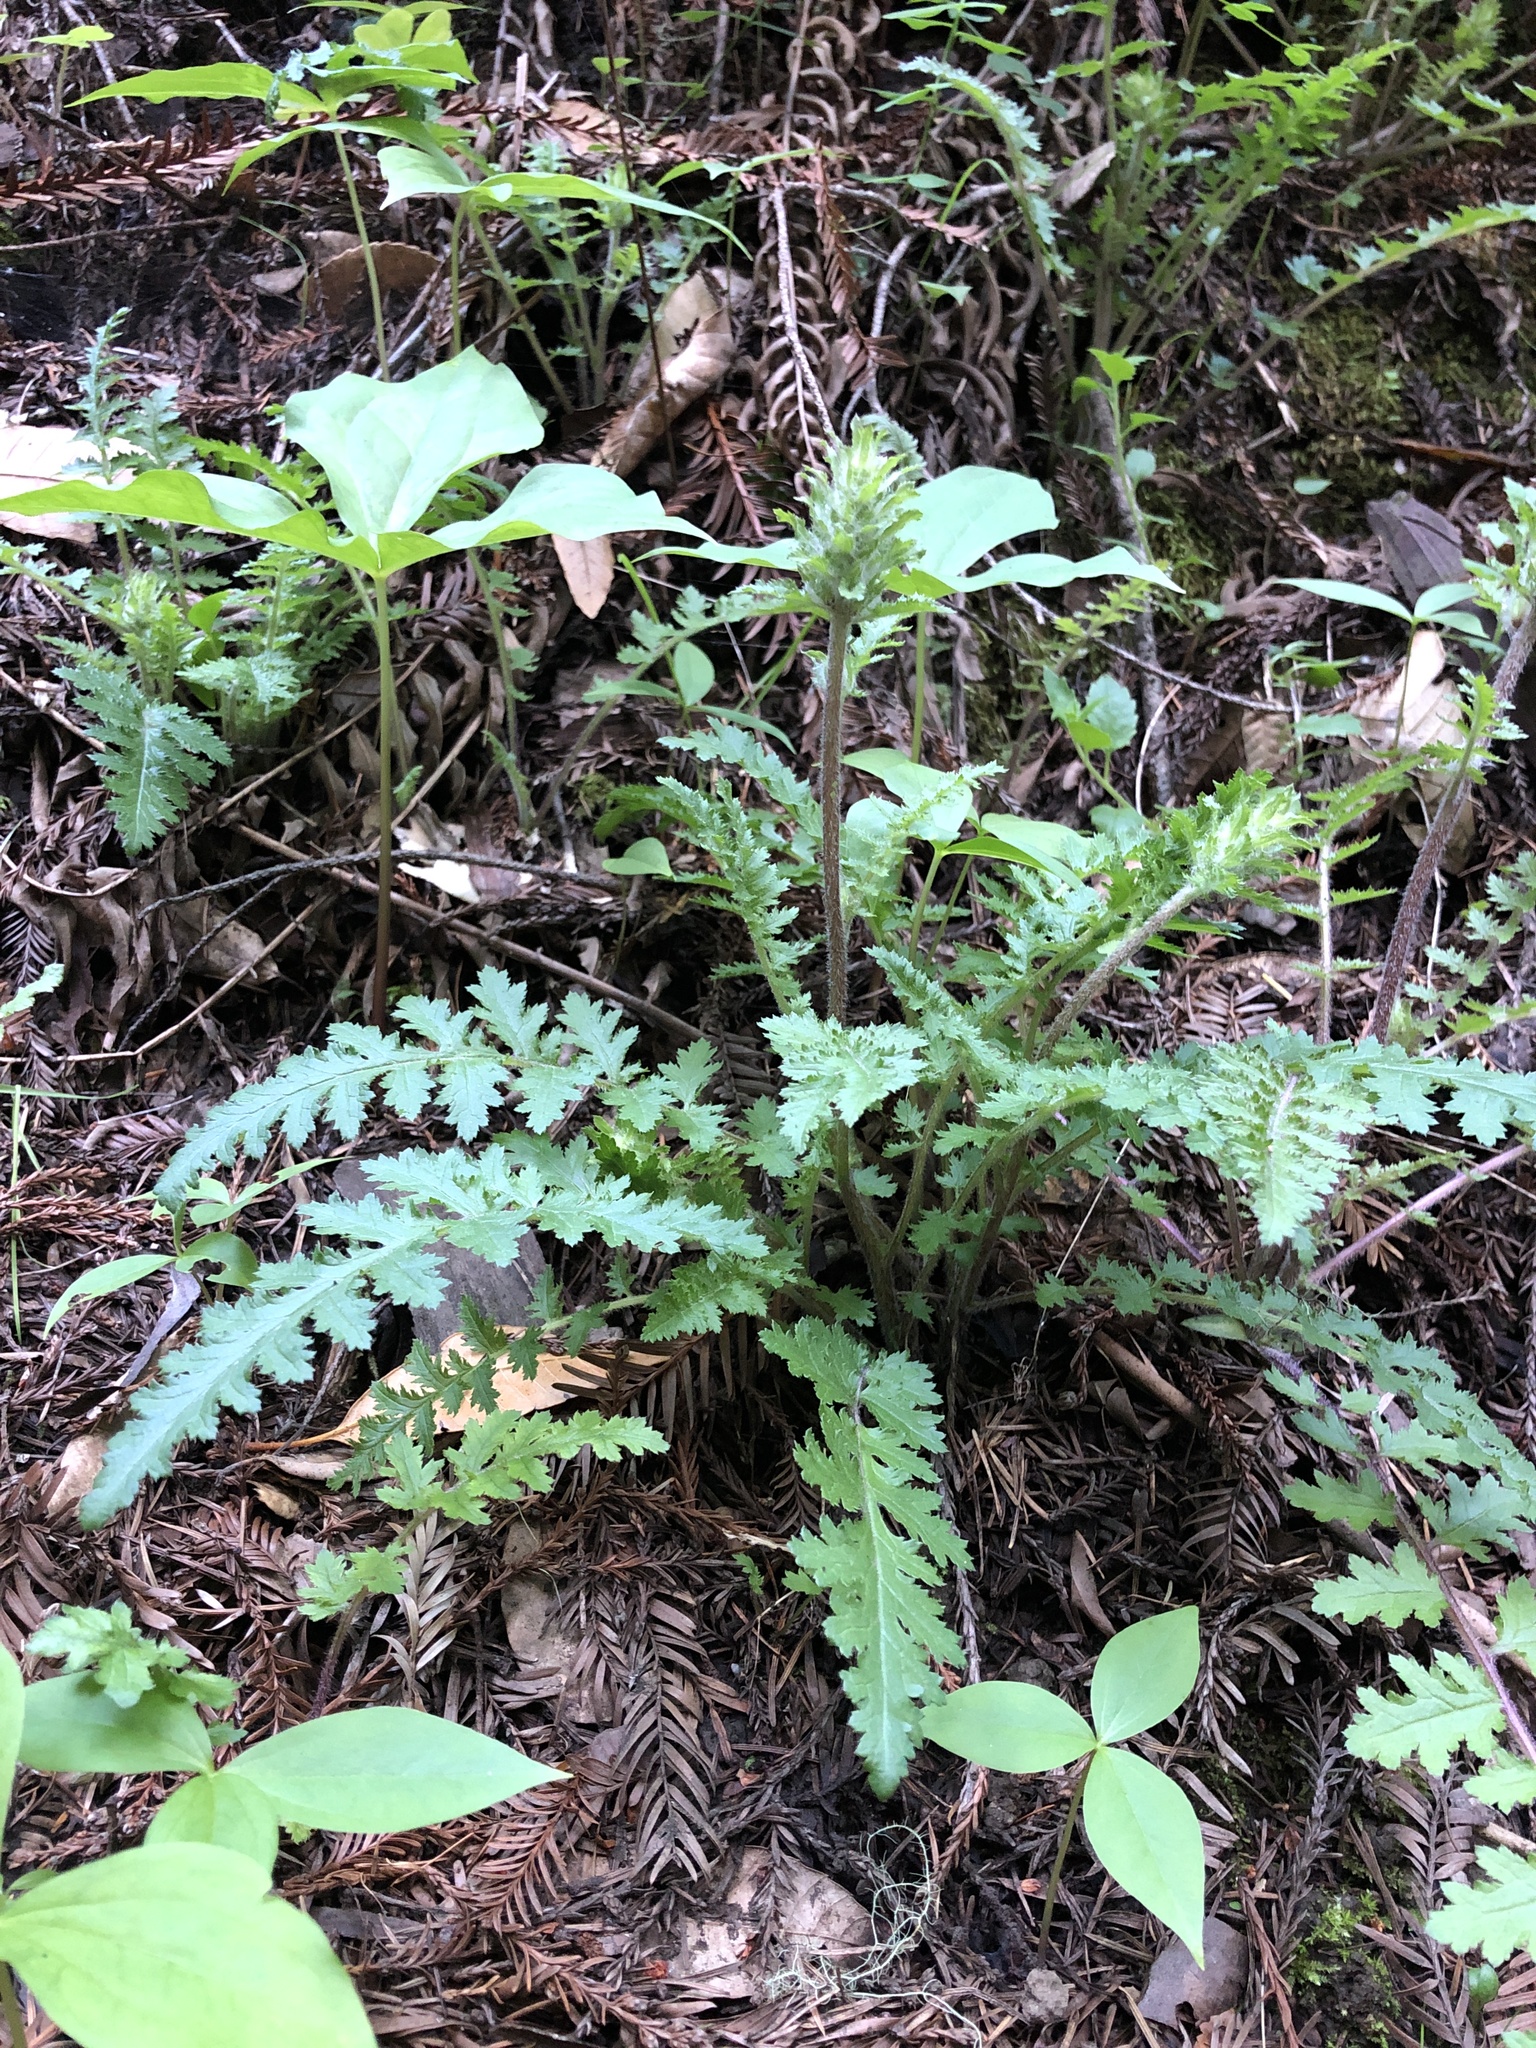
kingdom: Plantae
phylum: Tracheophyta
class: Magnoliopsida
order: Lamiales
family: Orobanchaceae
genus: Pedicularis
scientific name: Pedicularis dudleyi
